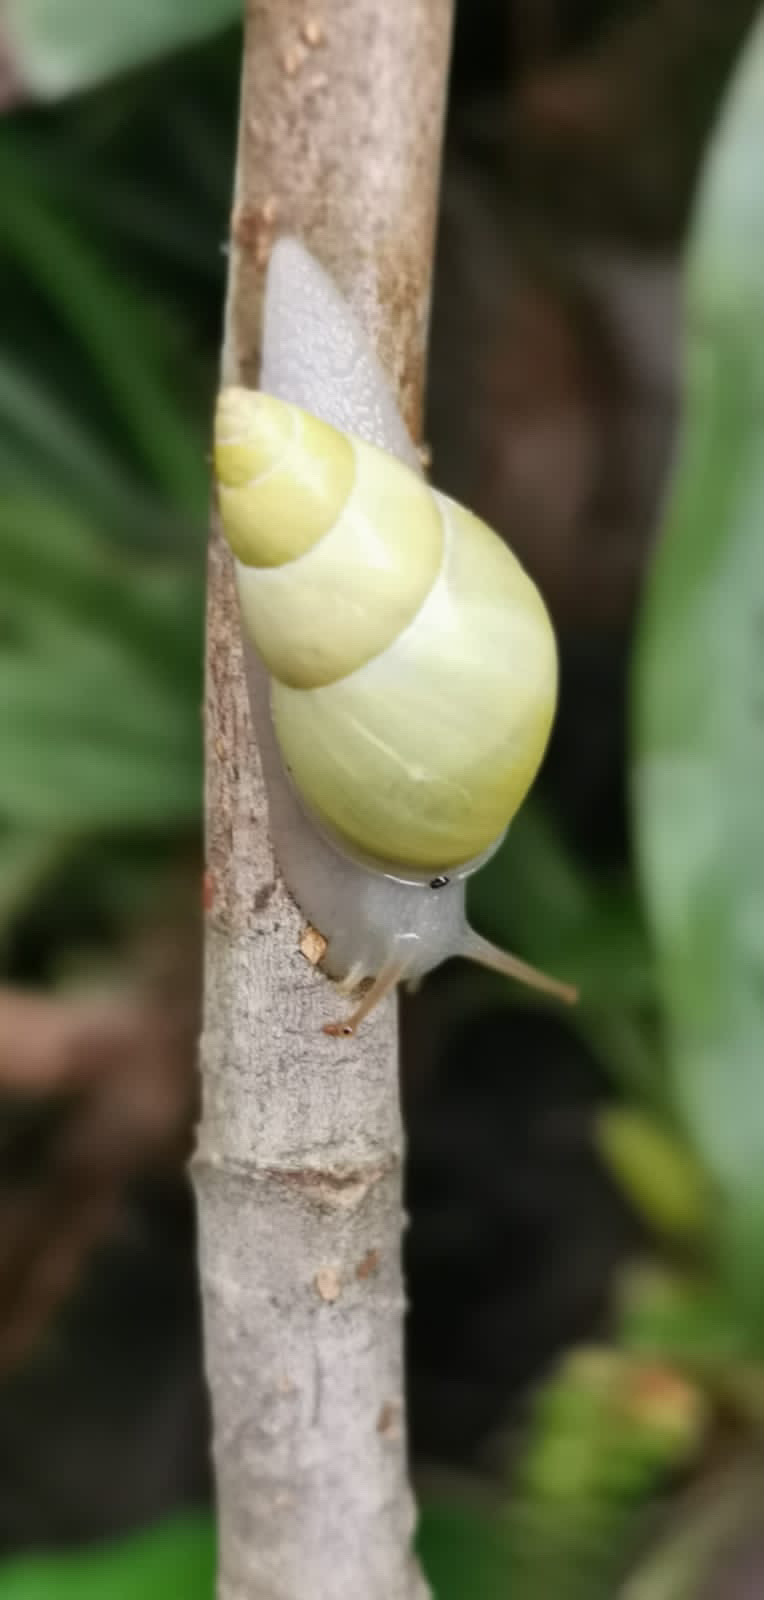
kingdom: Animalia
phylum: Mollusca
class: Gastropoda
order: Stylommatophora
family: Bulimulidae
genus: Drymaeus
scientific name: Drymaeus sulphureus
